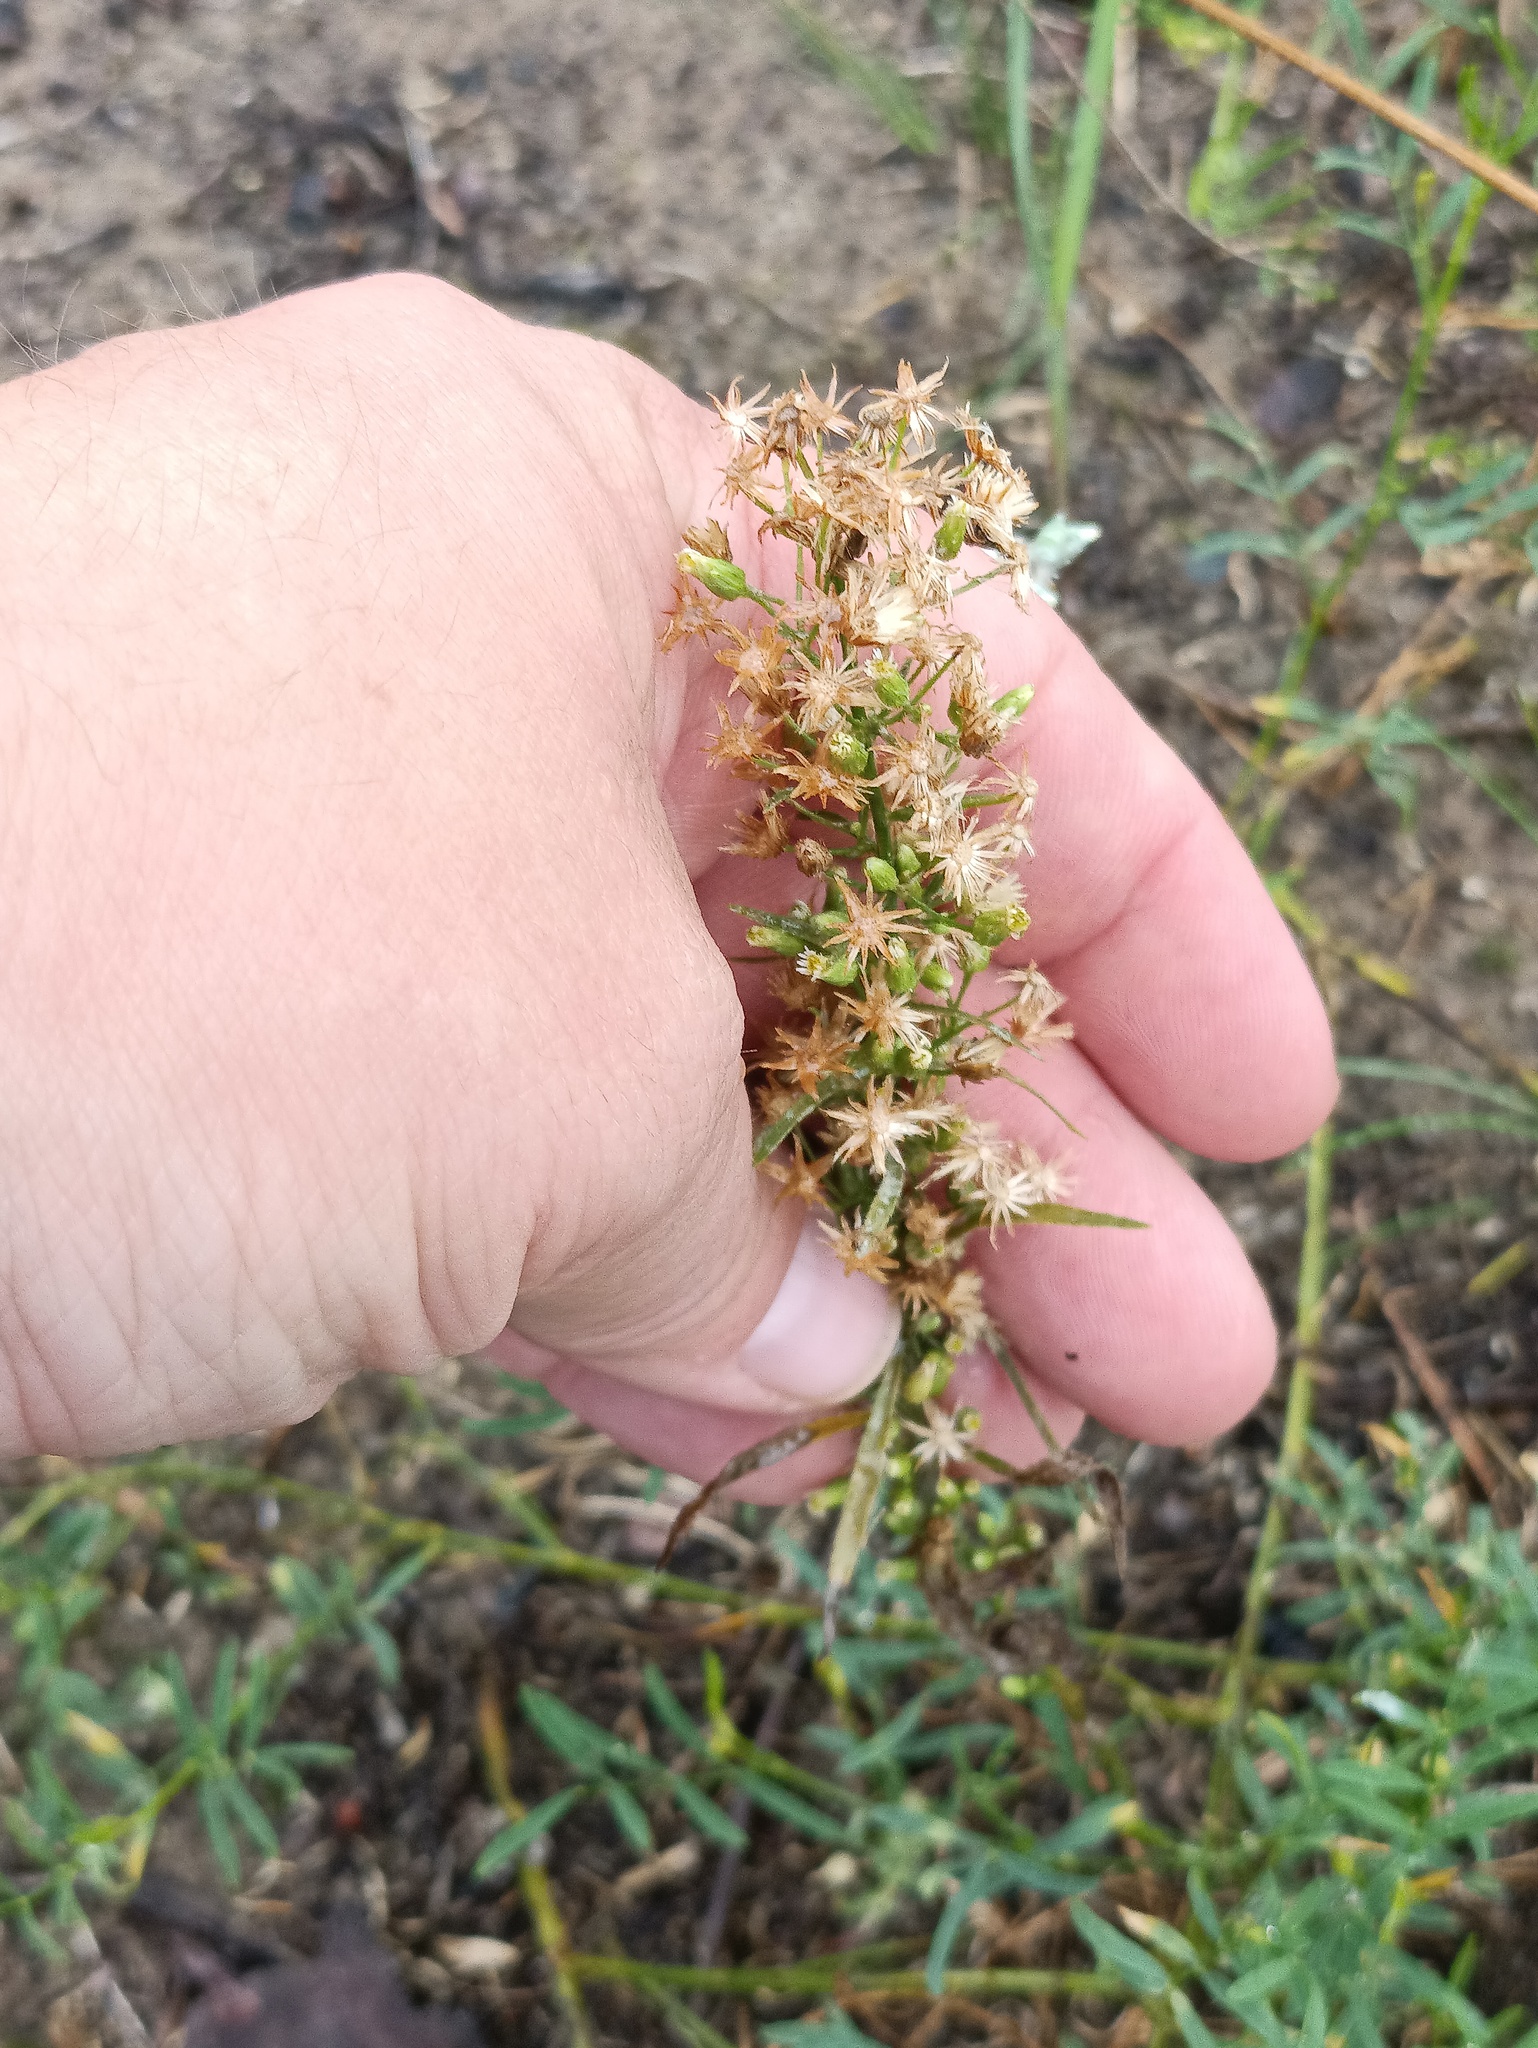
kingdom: Plantae
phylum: Tracheophyta
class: Magnoliopsida
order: Asterales
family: Asteraceae
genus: Erigeron
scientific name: Erigeron canadensis
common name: Canadian fleabane
